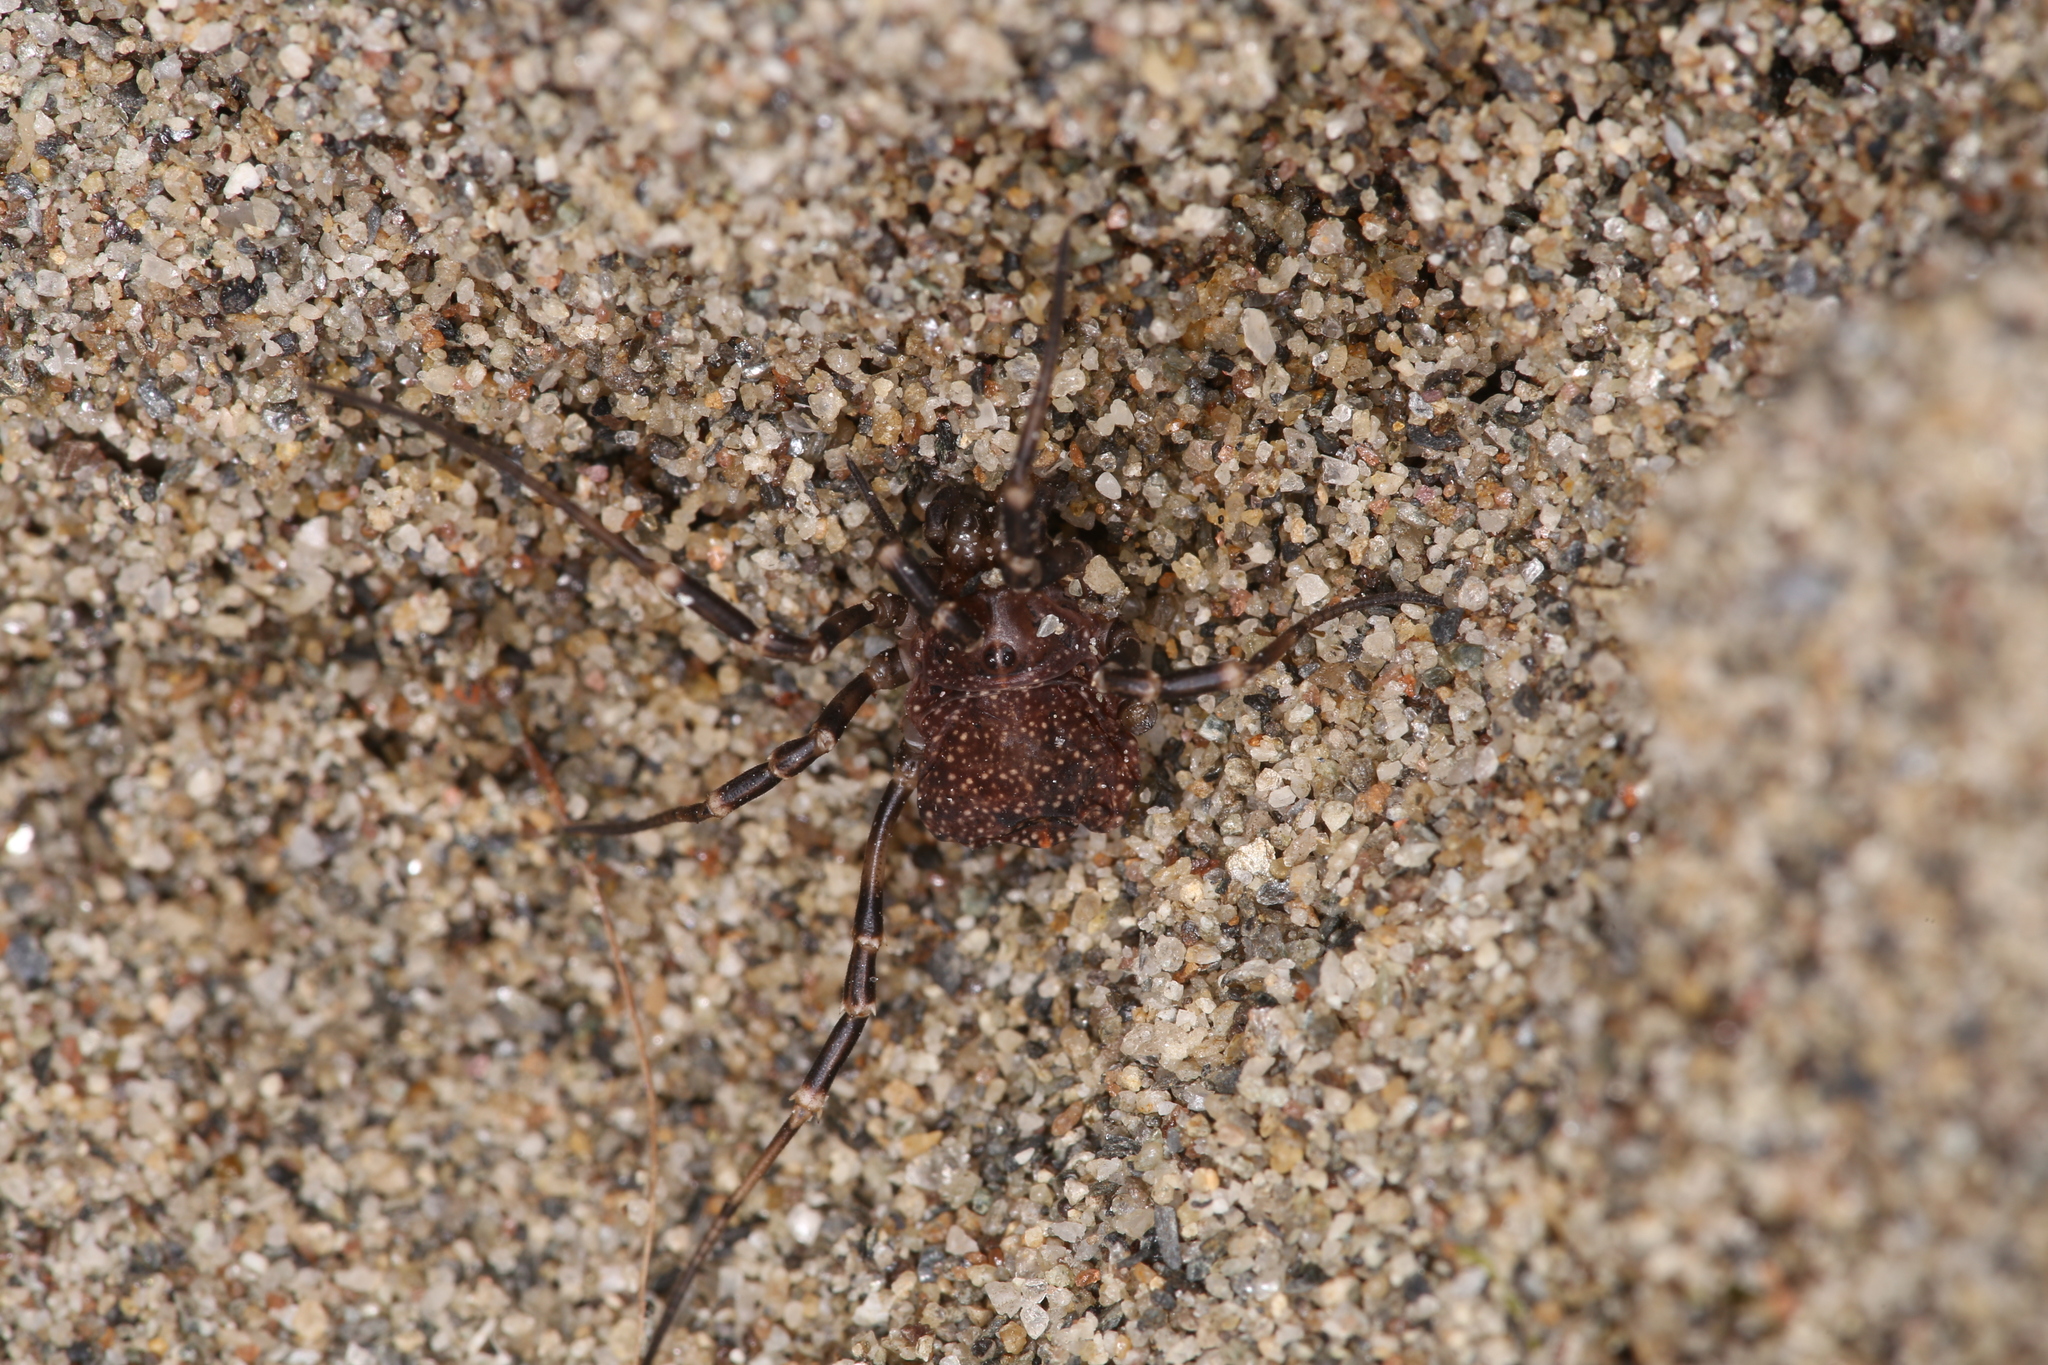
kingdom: Animalia
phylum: Arthropoda
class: Arachnida
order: Opiliones
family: Phalangiidae
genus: Egaenus
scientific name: Egaenus convexus
